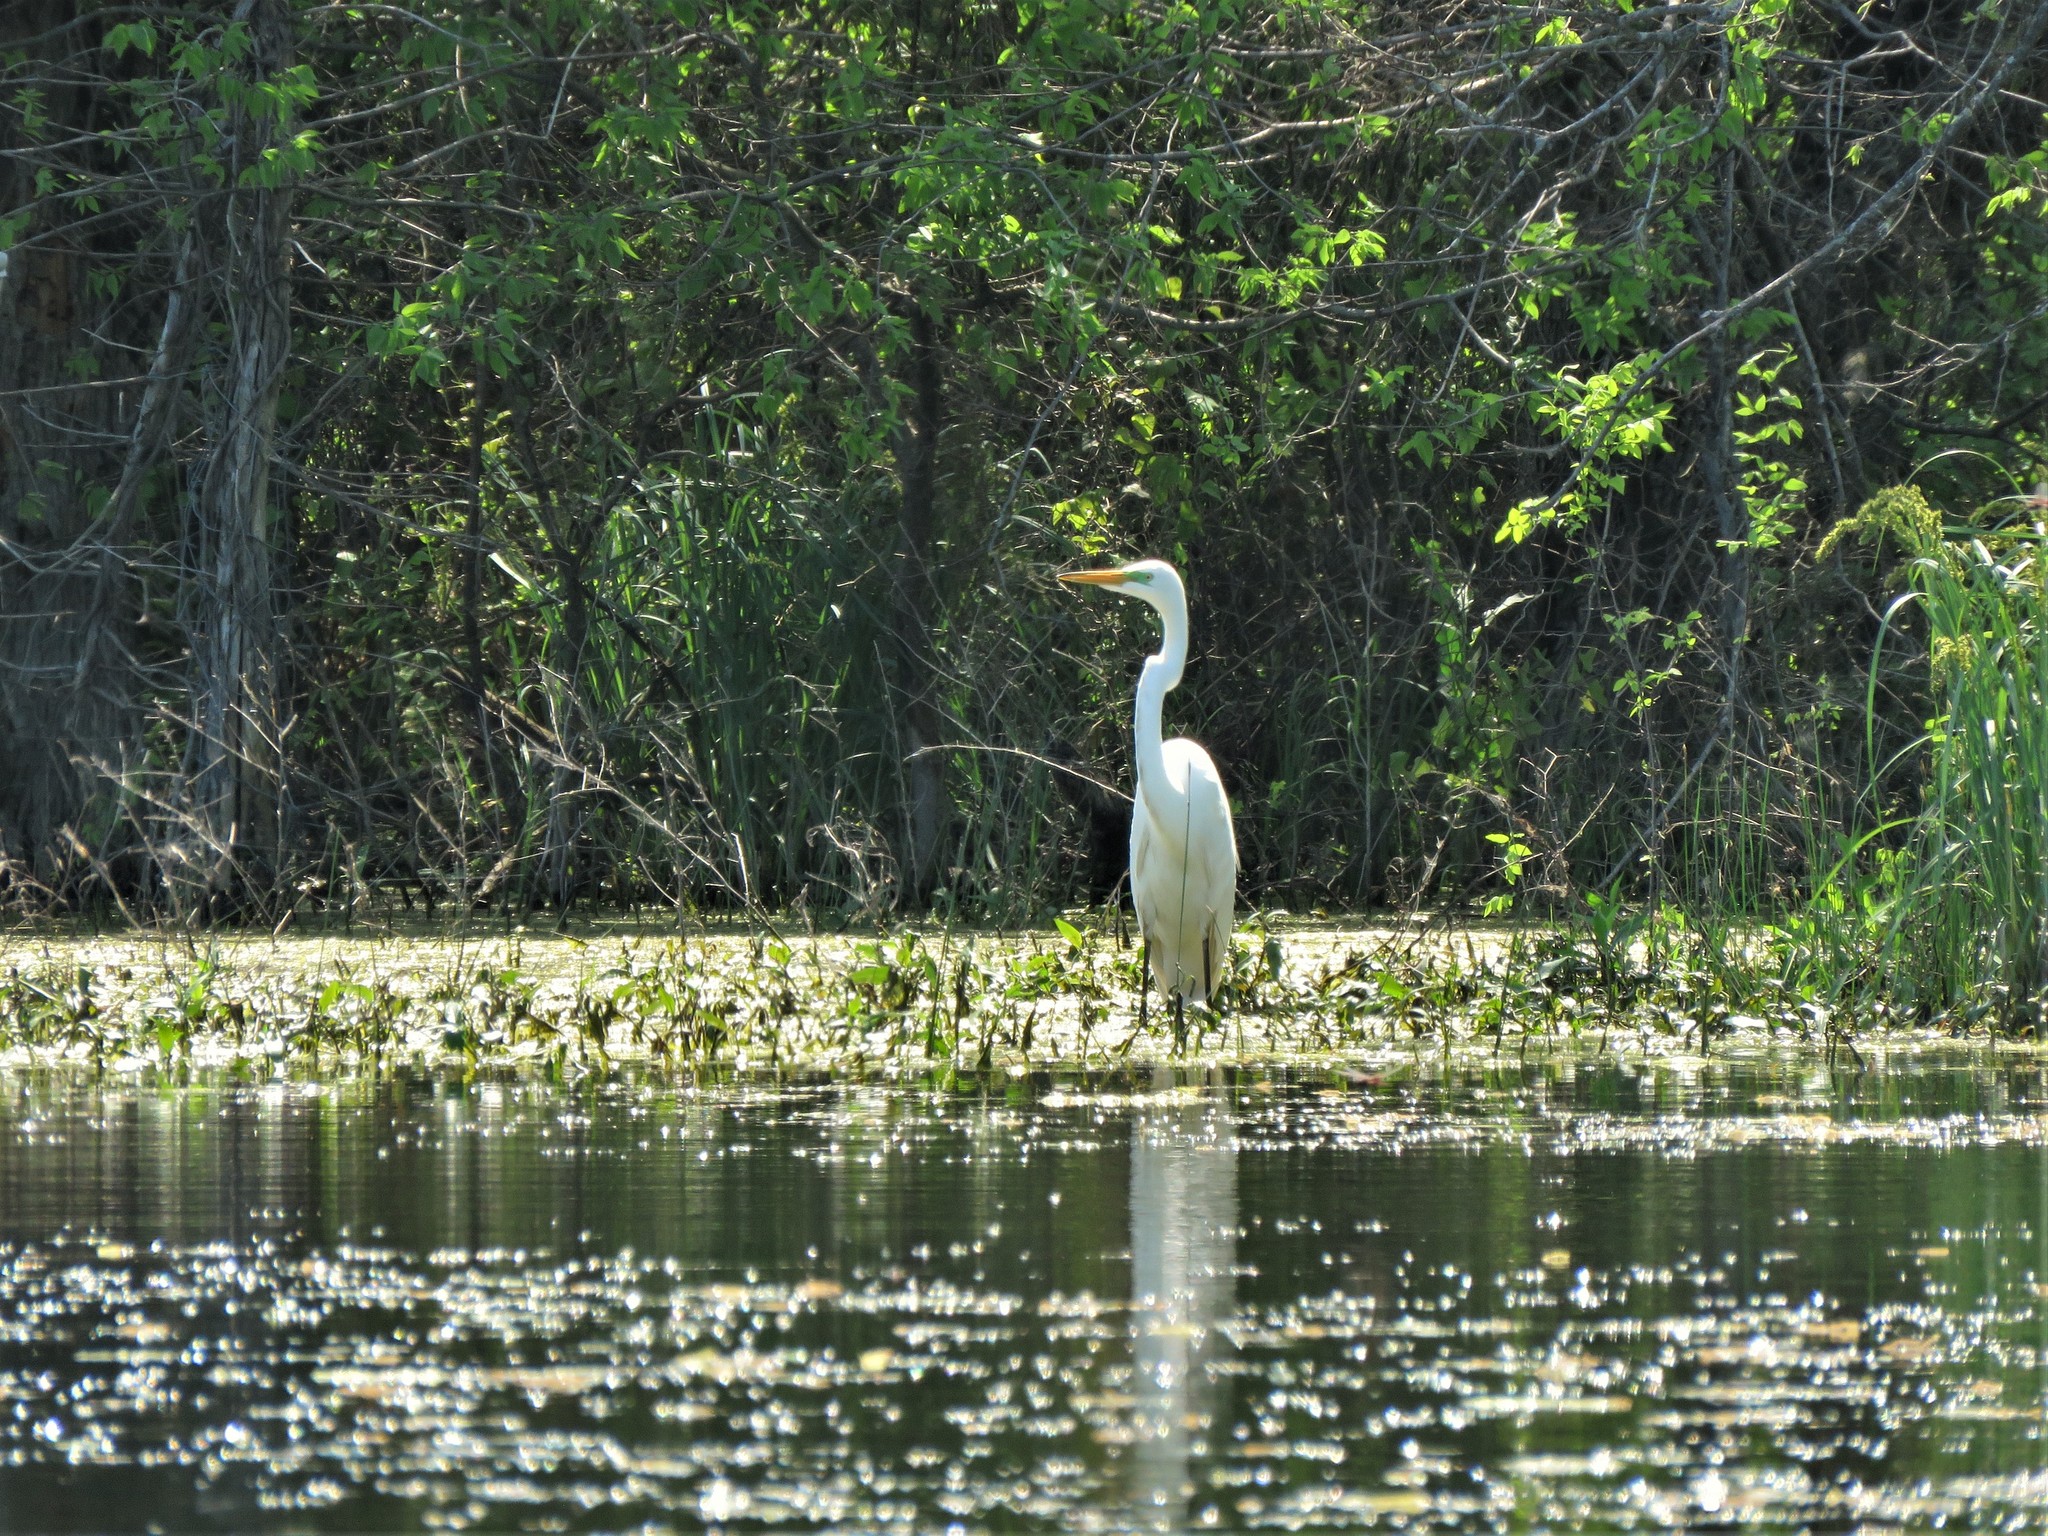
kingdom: Animalia
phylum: Chordata
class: Aves
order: Pelecaniformes
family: Ardeidae
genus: Ardea
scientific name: Ardea alba
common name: Great egret
